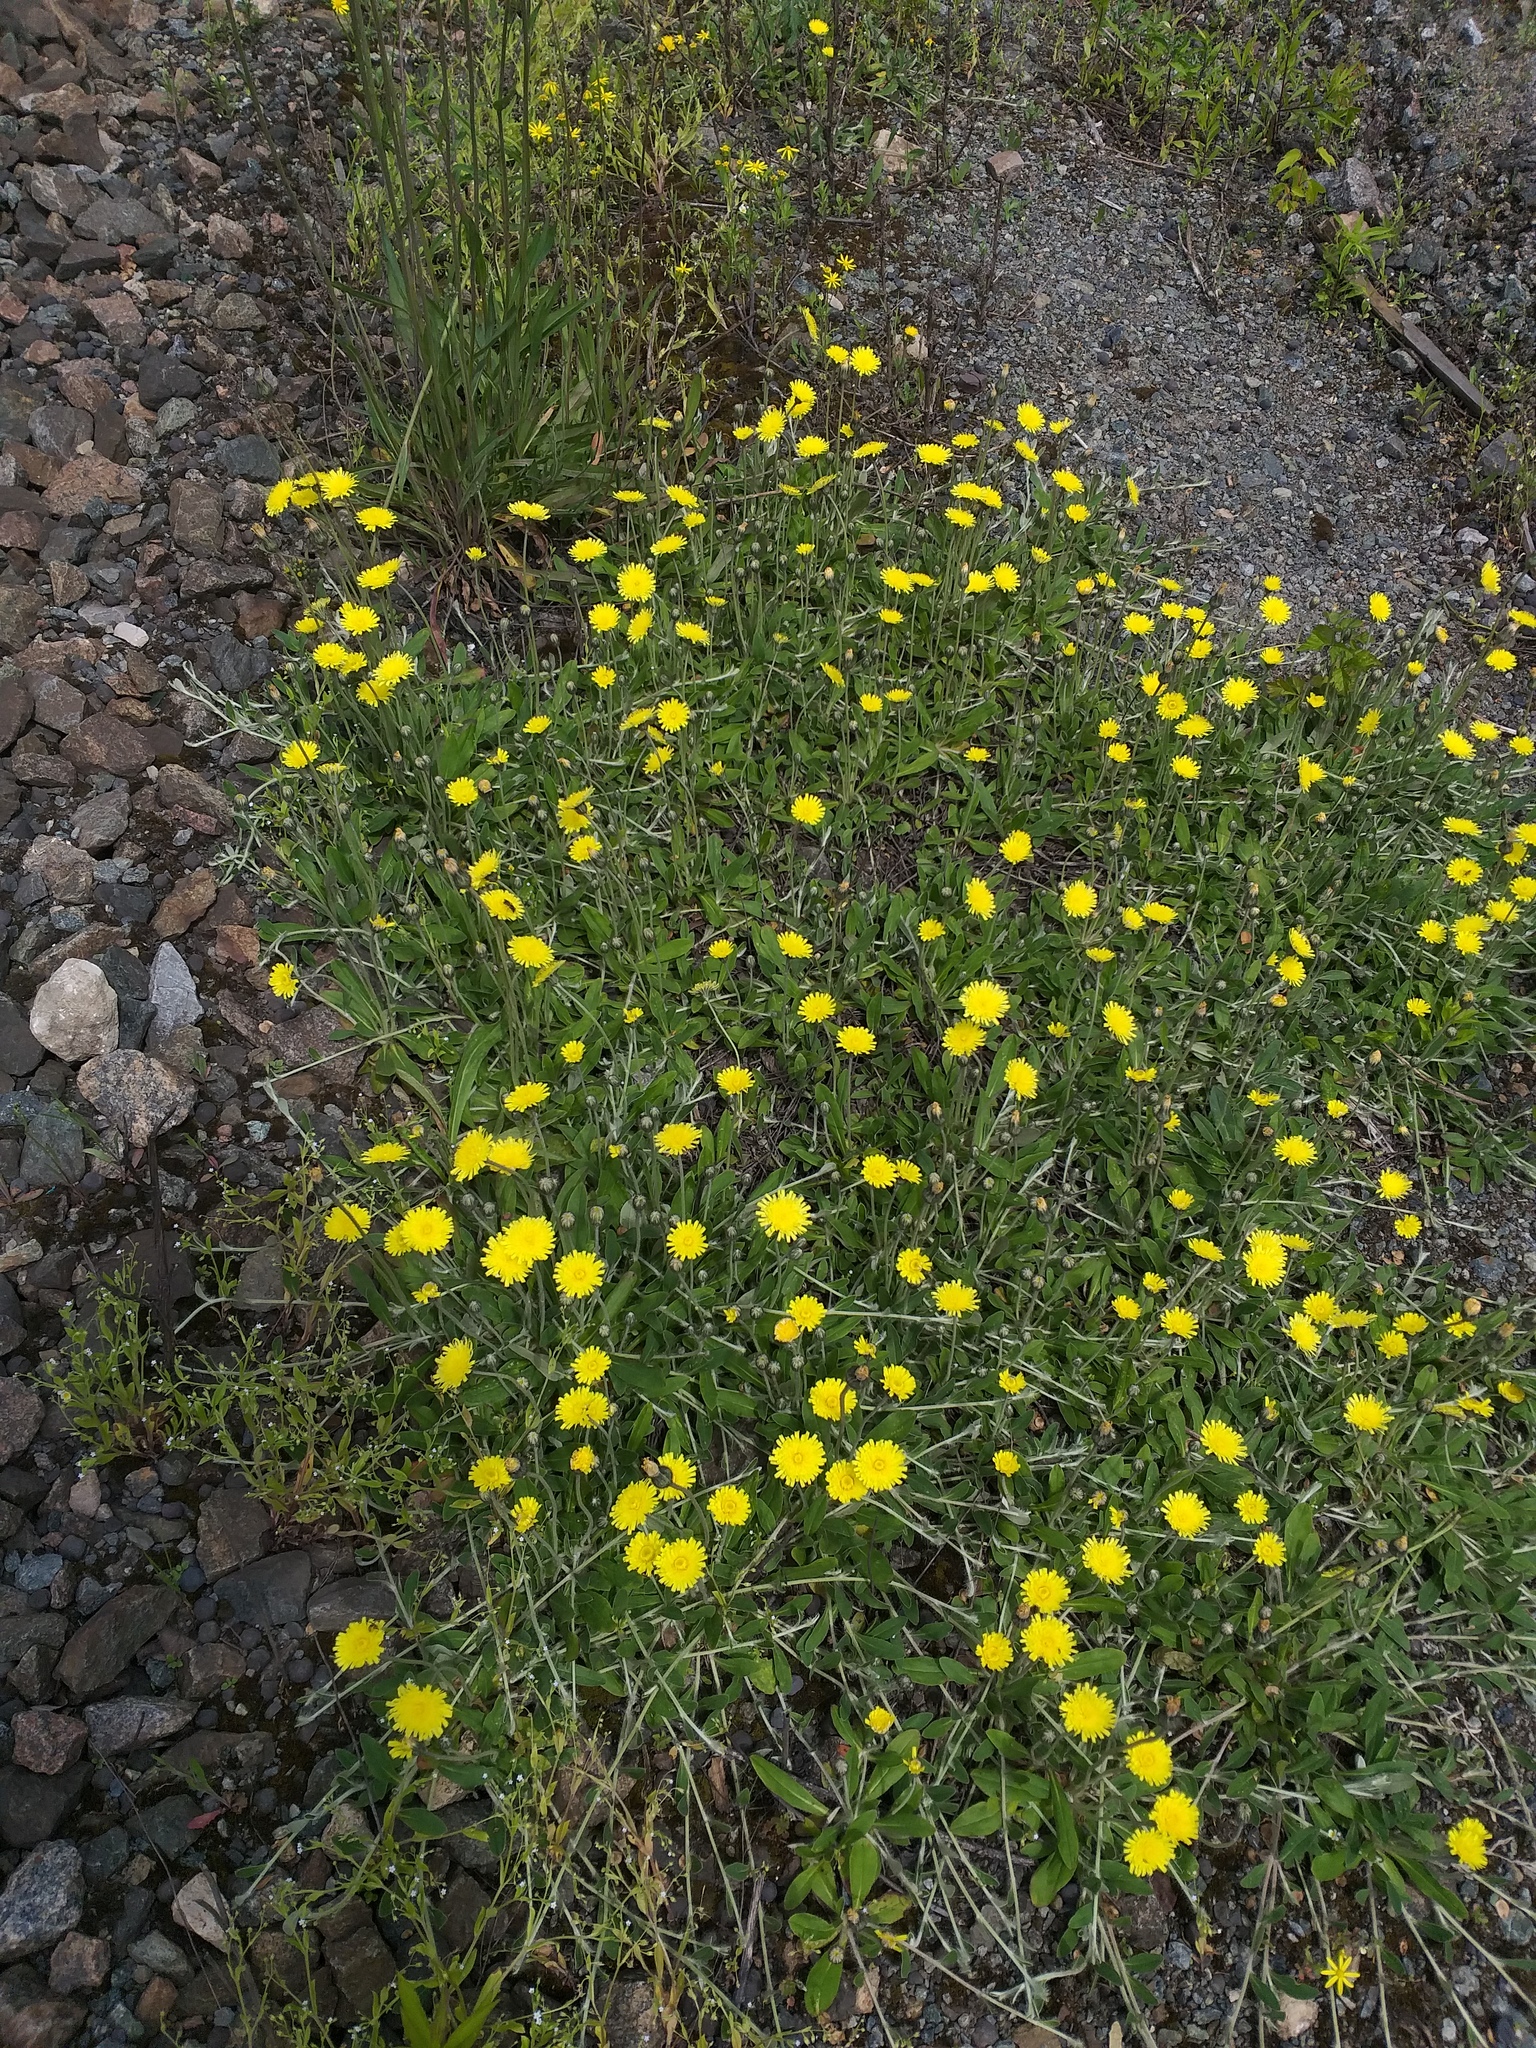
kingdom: Plantae
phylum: Tracheophyta
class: Magnoliopsida
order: Asterales
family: Asteraceae
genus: Pilosella
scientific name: Pilosella officinarum
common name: Mouse-ear hawkweed
